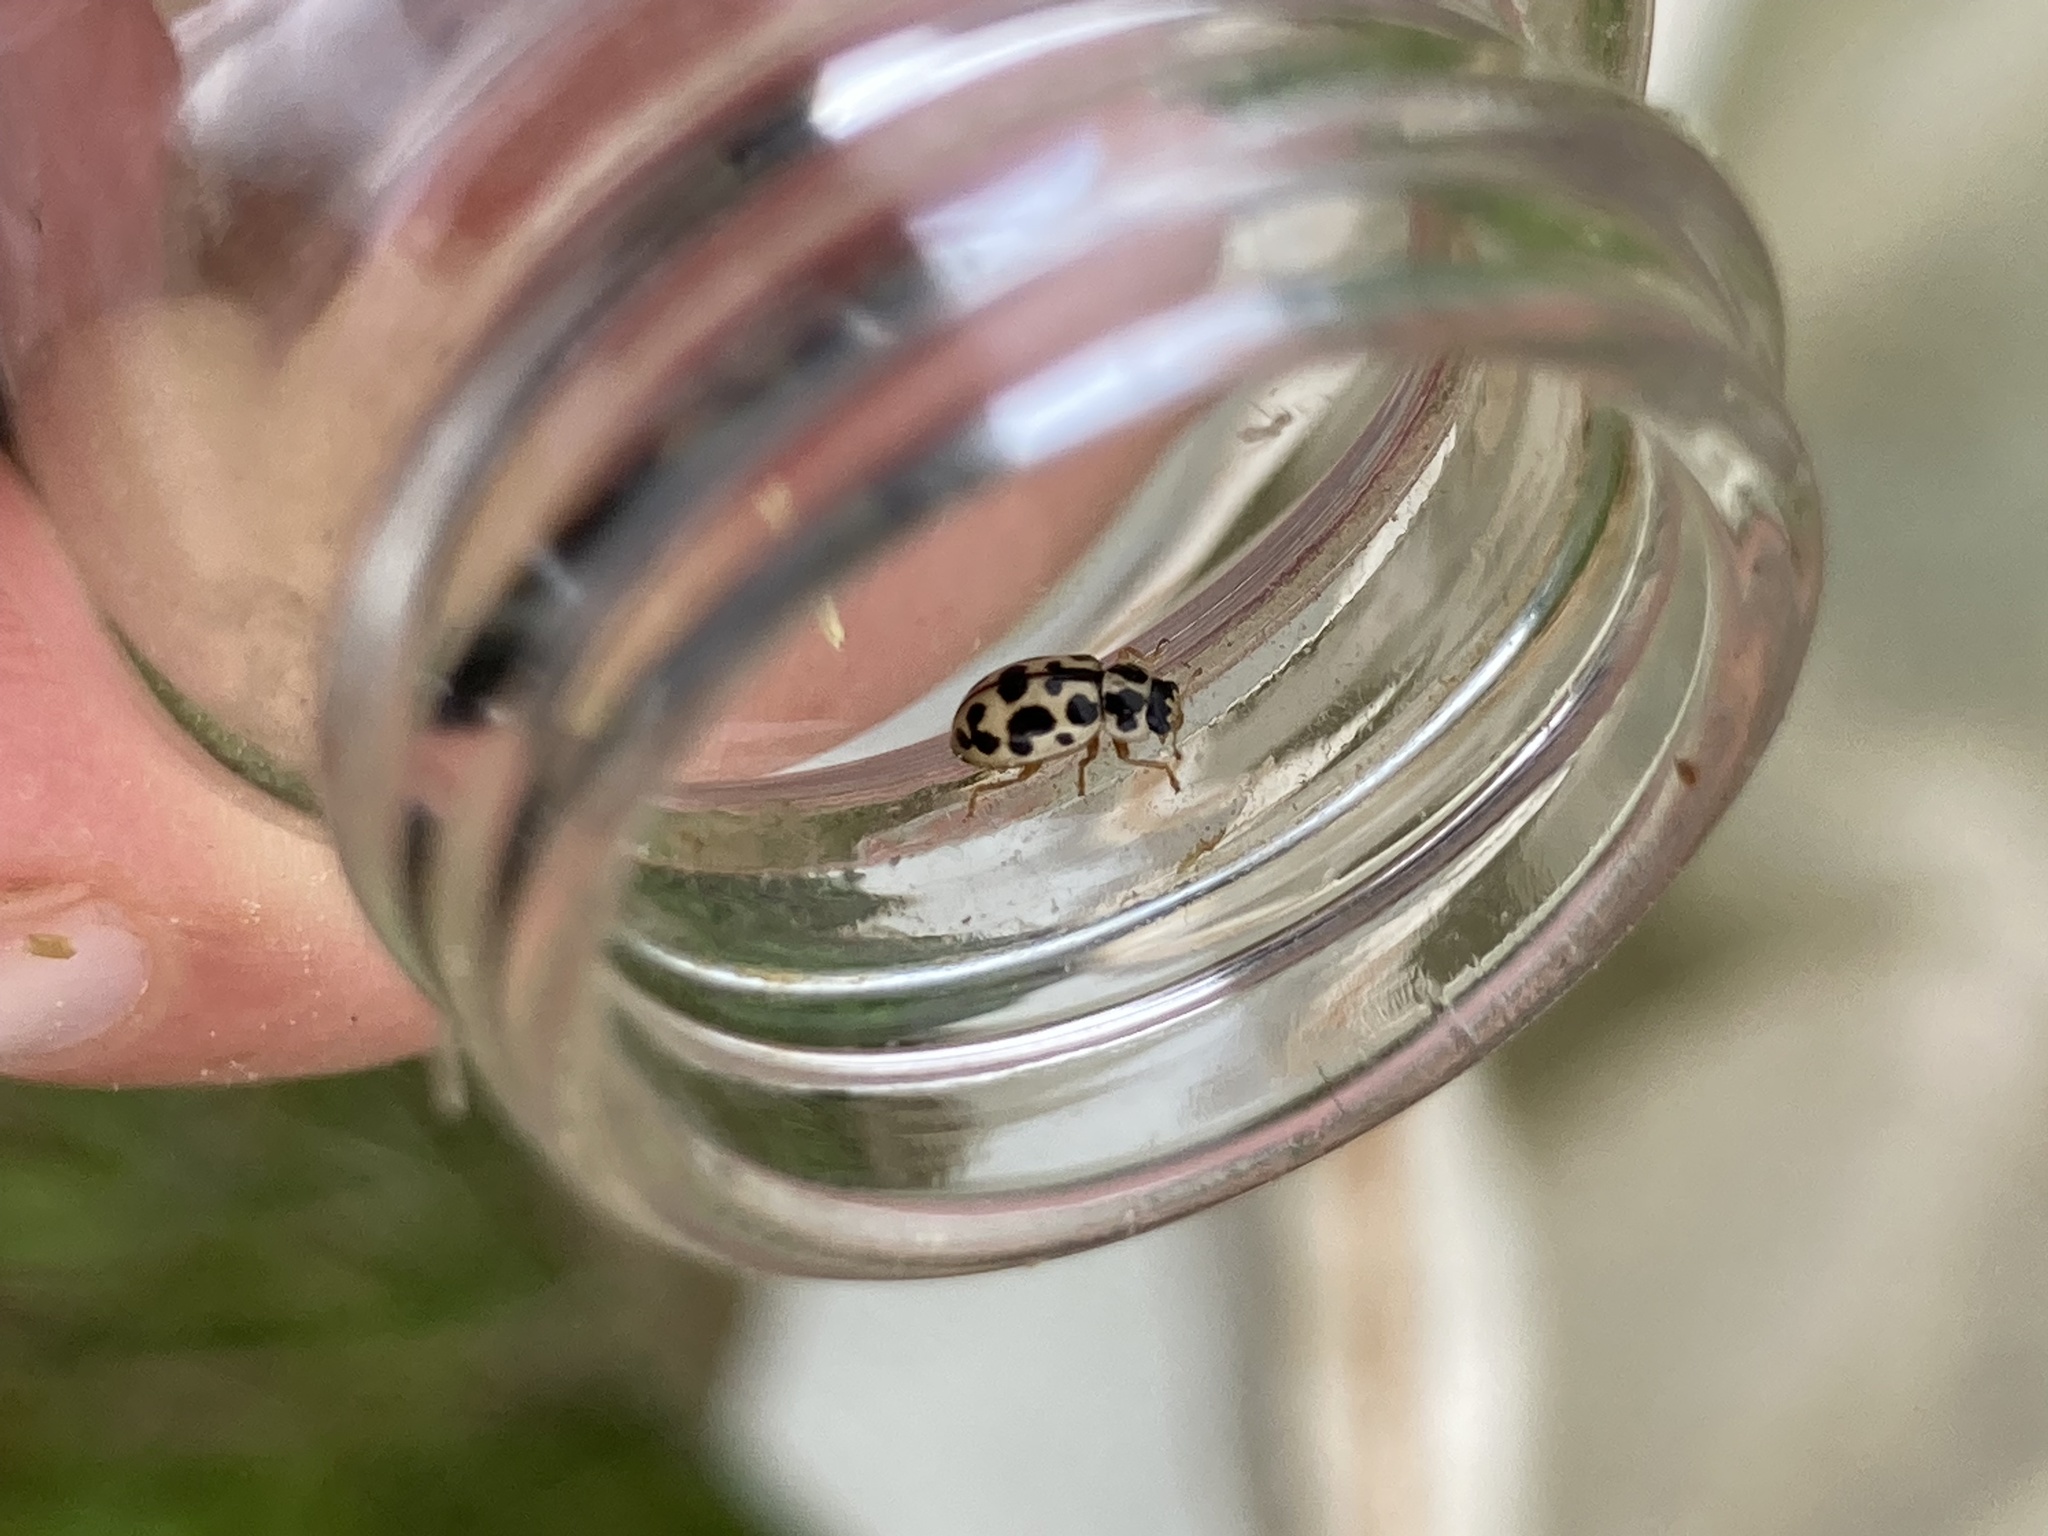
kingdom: Animalia
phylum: Arthropoda
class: Insecta
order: Coleoptera
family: Coccinellidae
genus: Anisosticta
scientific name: Anisosticta bitriangularis
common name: Marsh lady beetle
